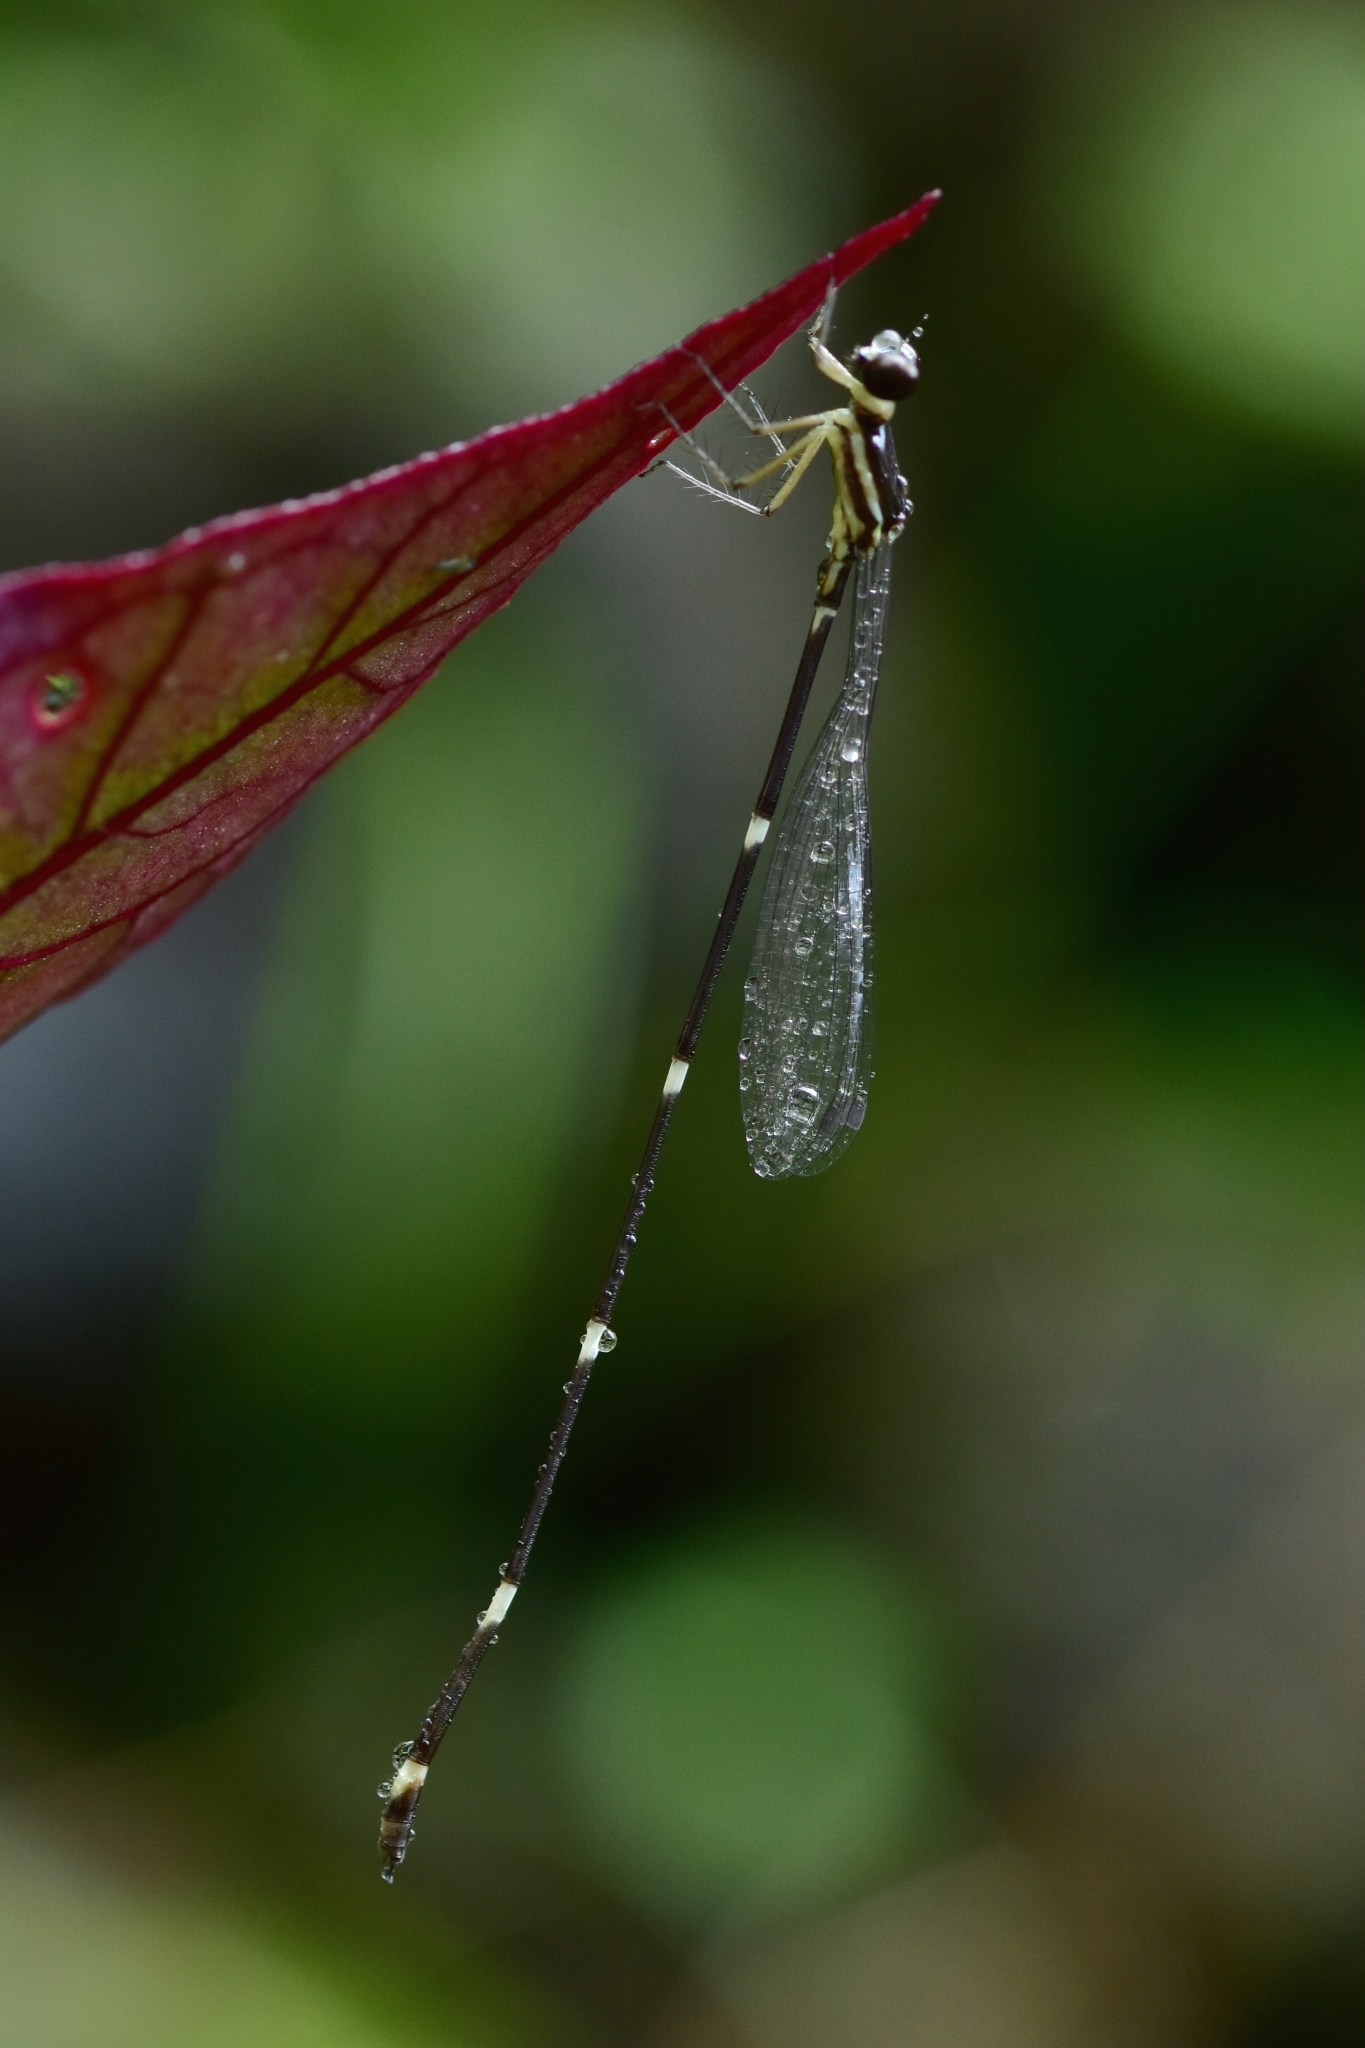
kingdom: Animalia
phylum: Arthropoda
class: Insecta
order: Odonata
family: Platystictidae
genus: Protosticta
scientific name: Protosticta gravelyi
